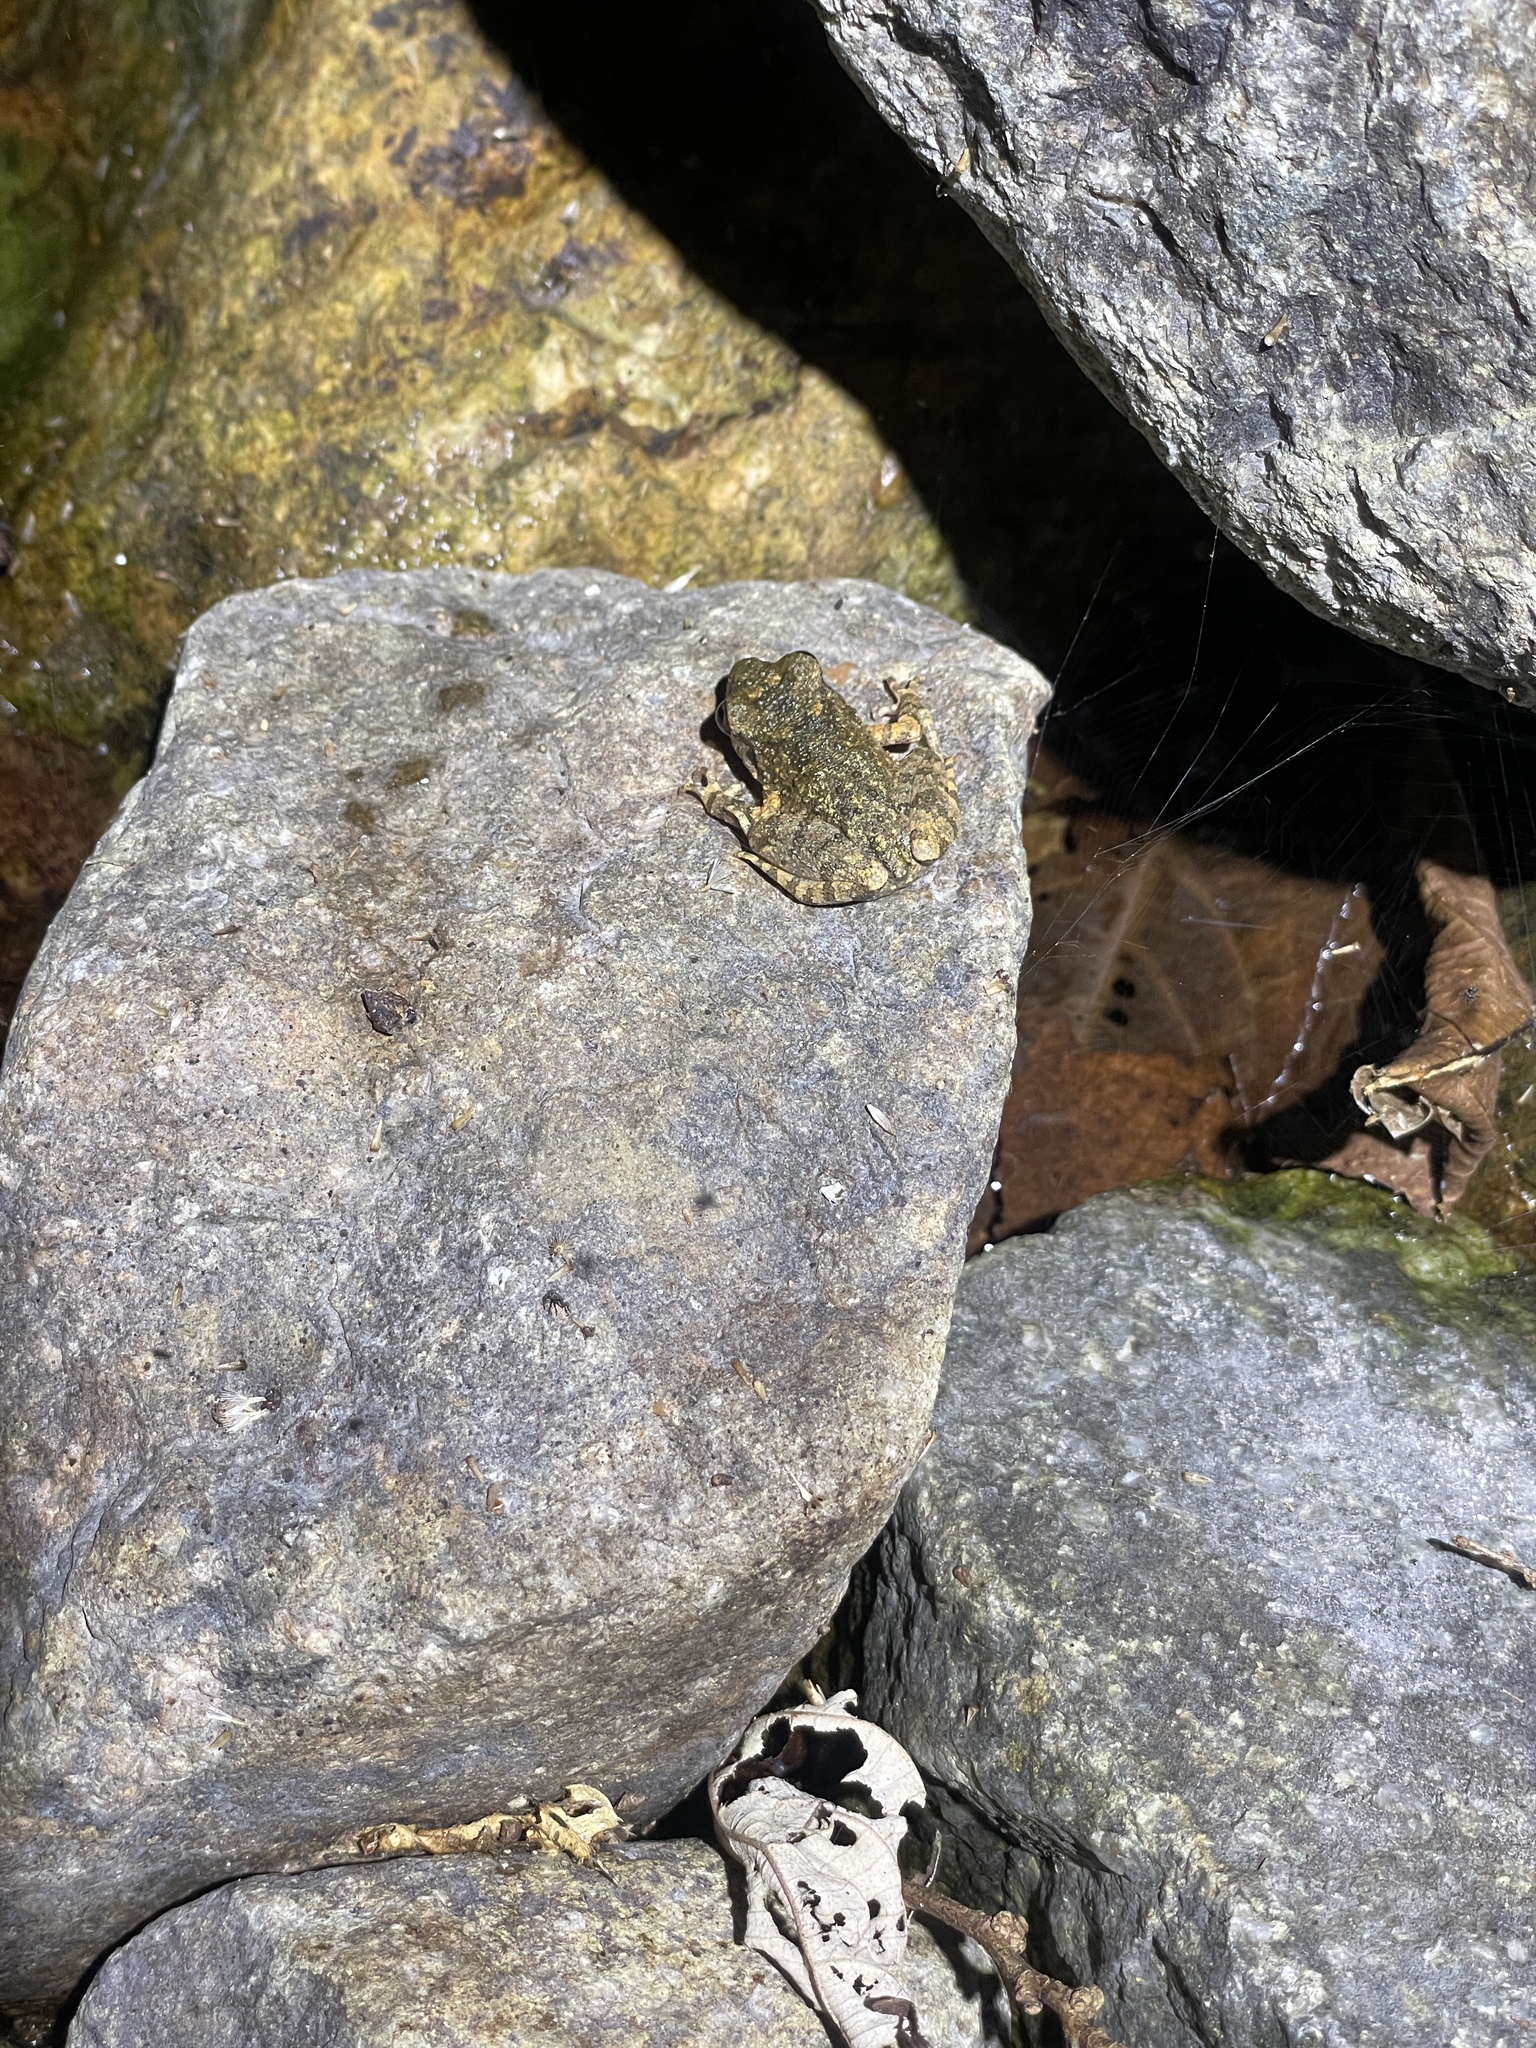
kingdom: Animalia
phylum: Chordata
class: Amphibia
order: Anura
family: Megophryidae
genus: Leptobrachella
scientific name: Leptobrachella laui
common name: Lau's leaf little toad
